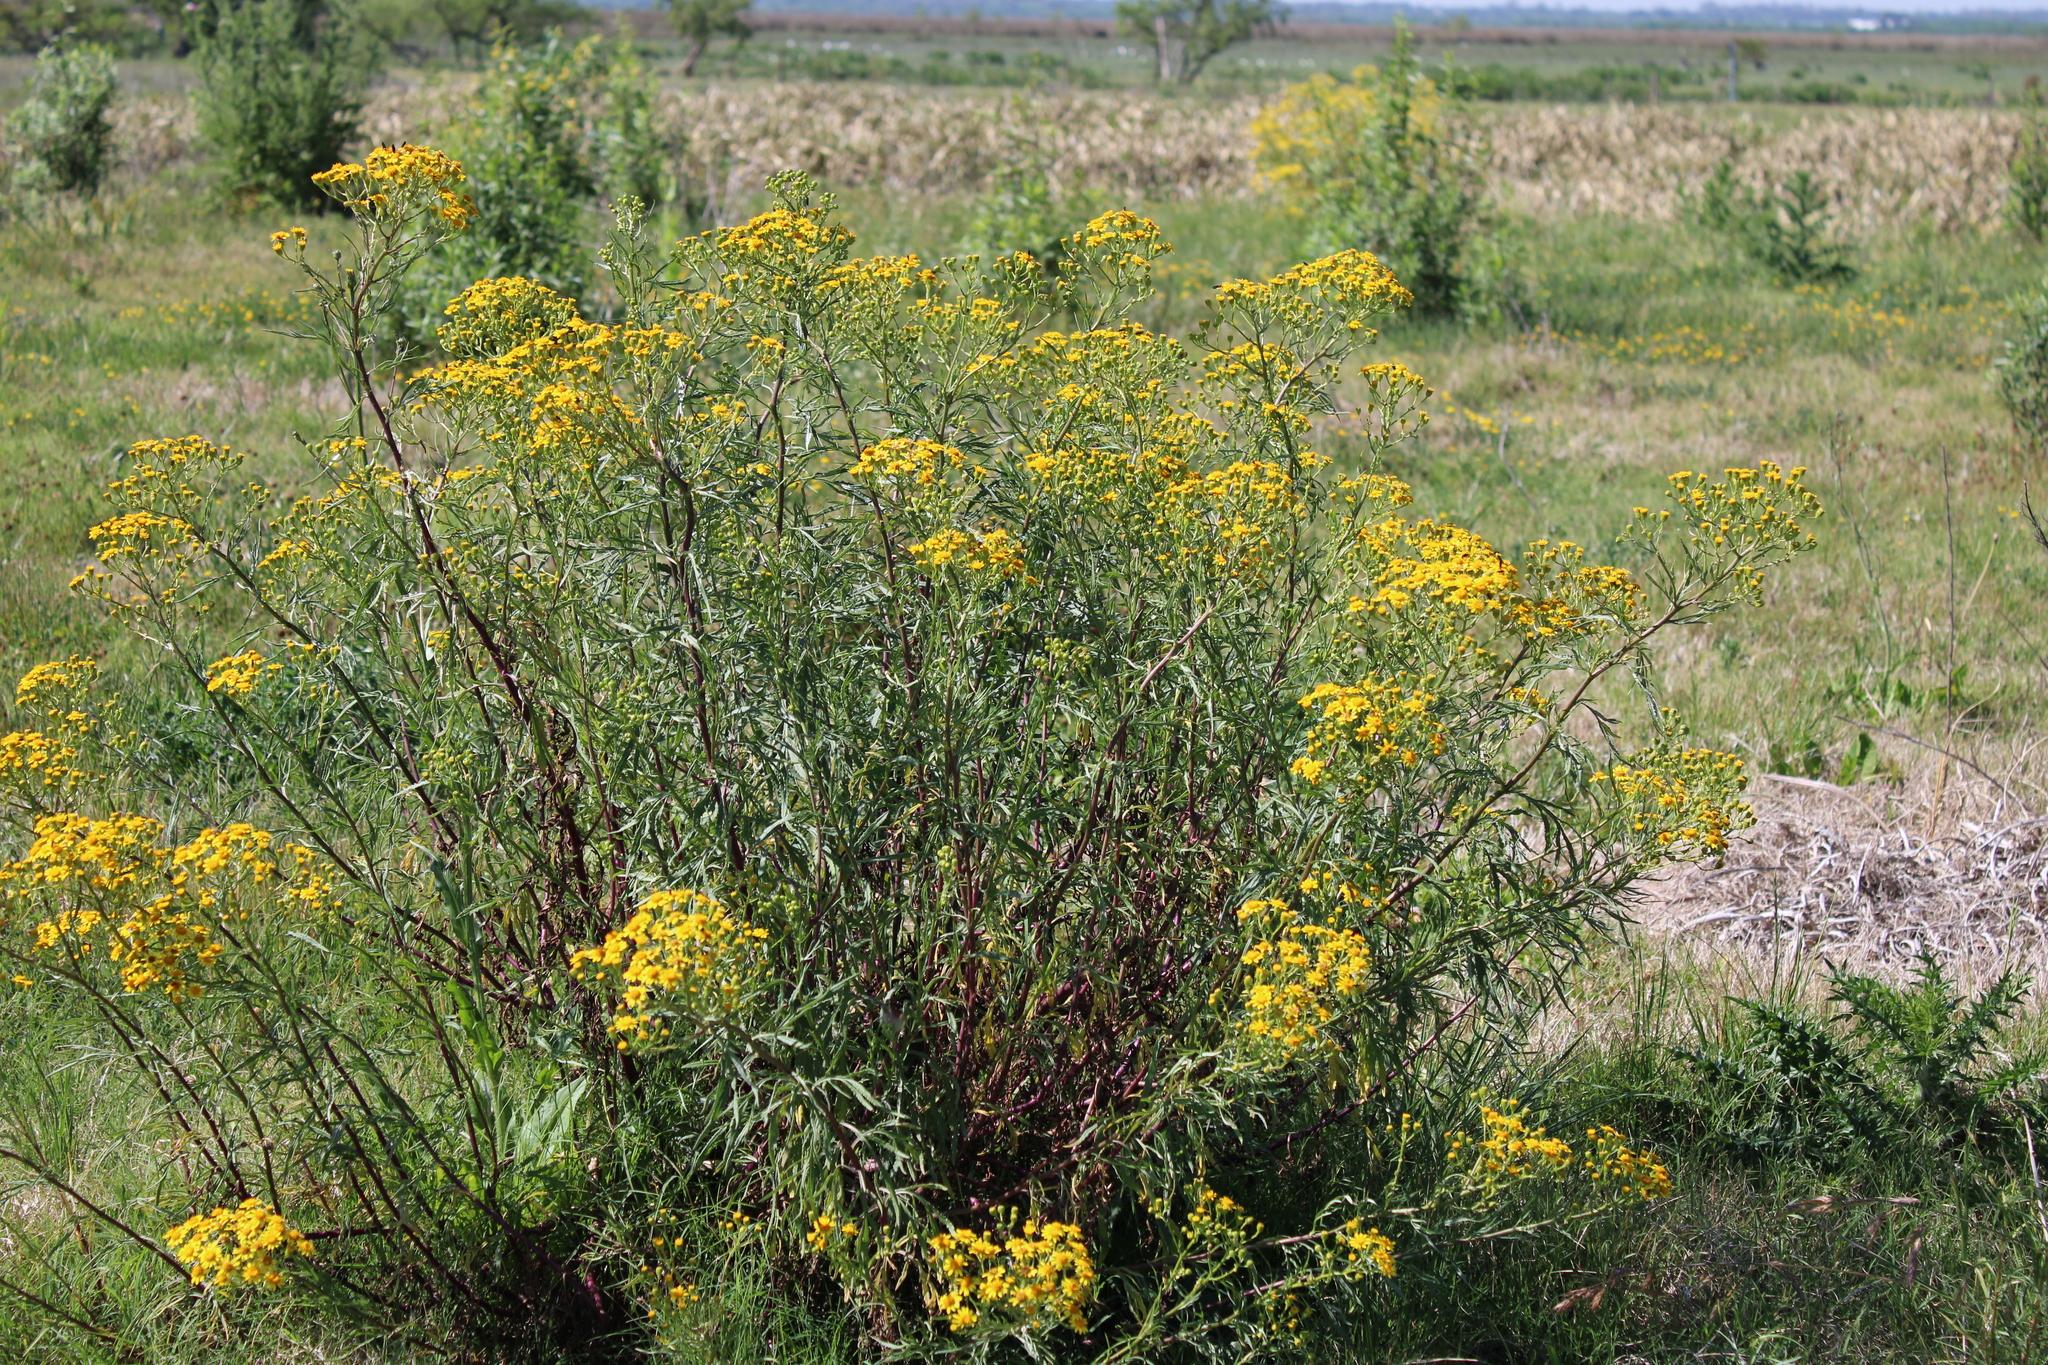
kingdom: Plantae
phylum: Tracheophyta
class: Magnoliopsida
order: Asterales
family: Asteraceae
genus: Senecio
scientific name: Senecio brasiliensis
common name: Hemp-leaf ragwort
